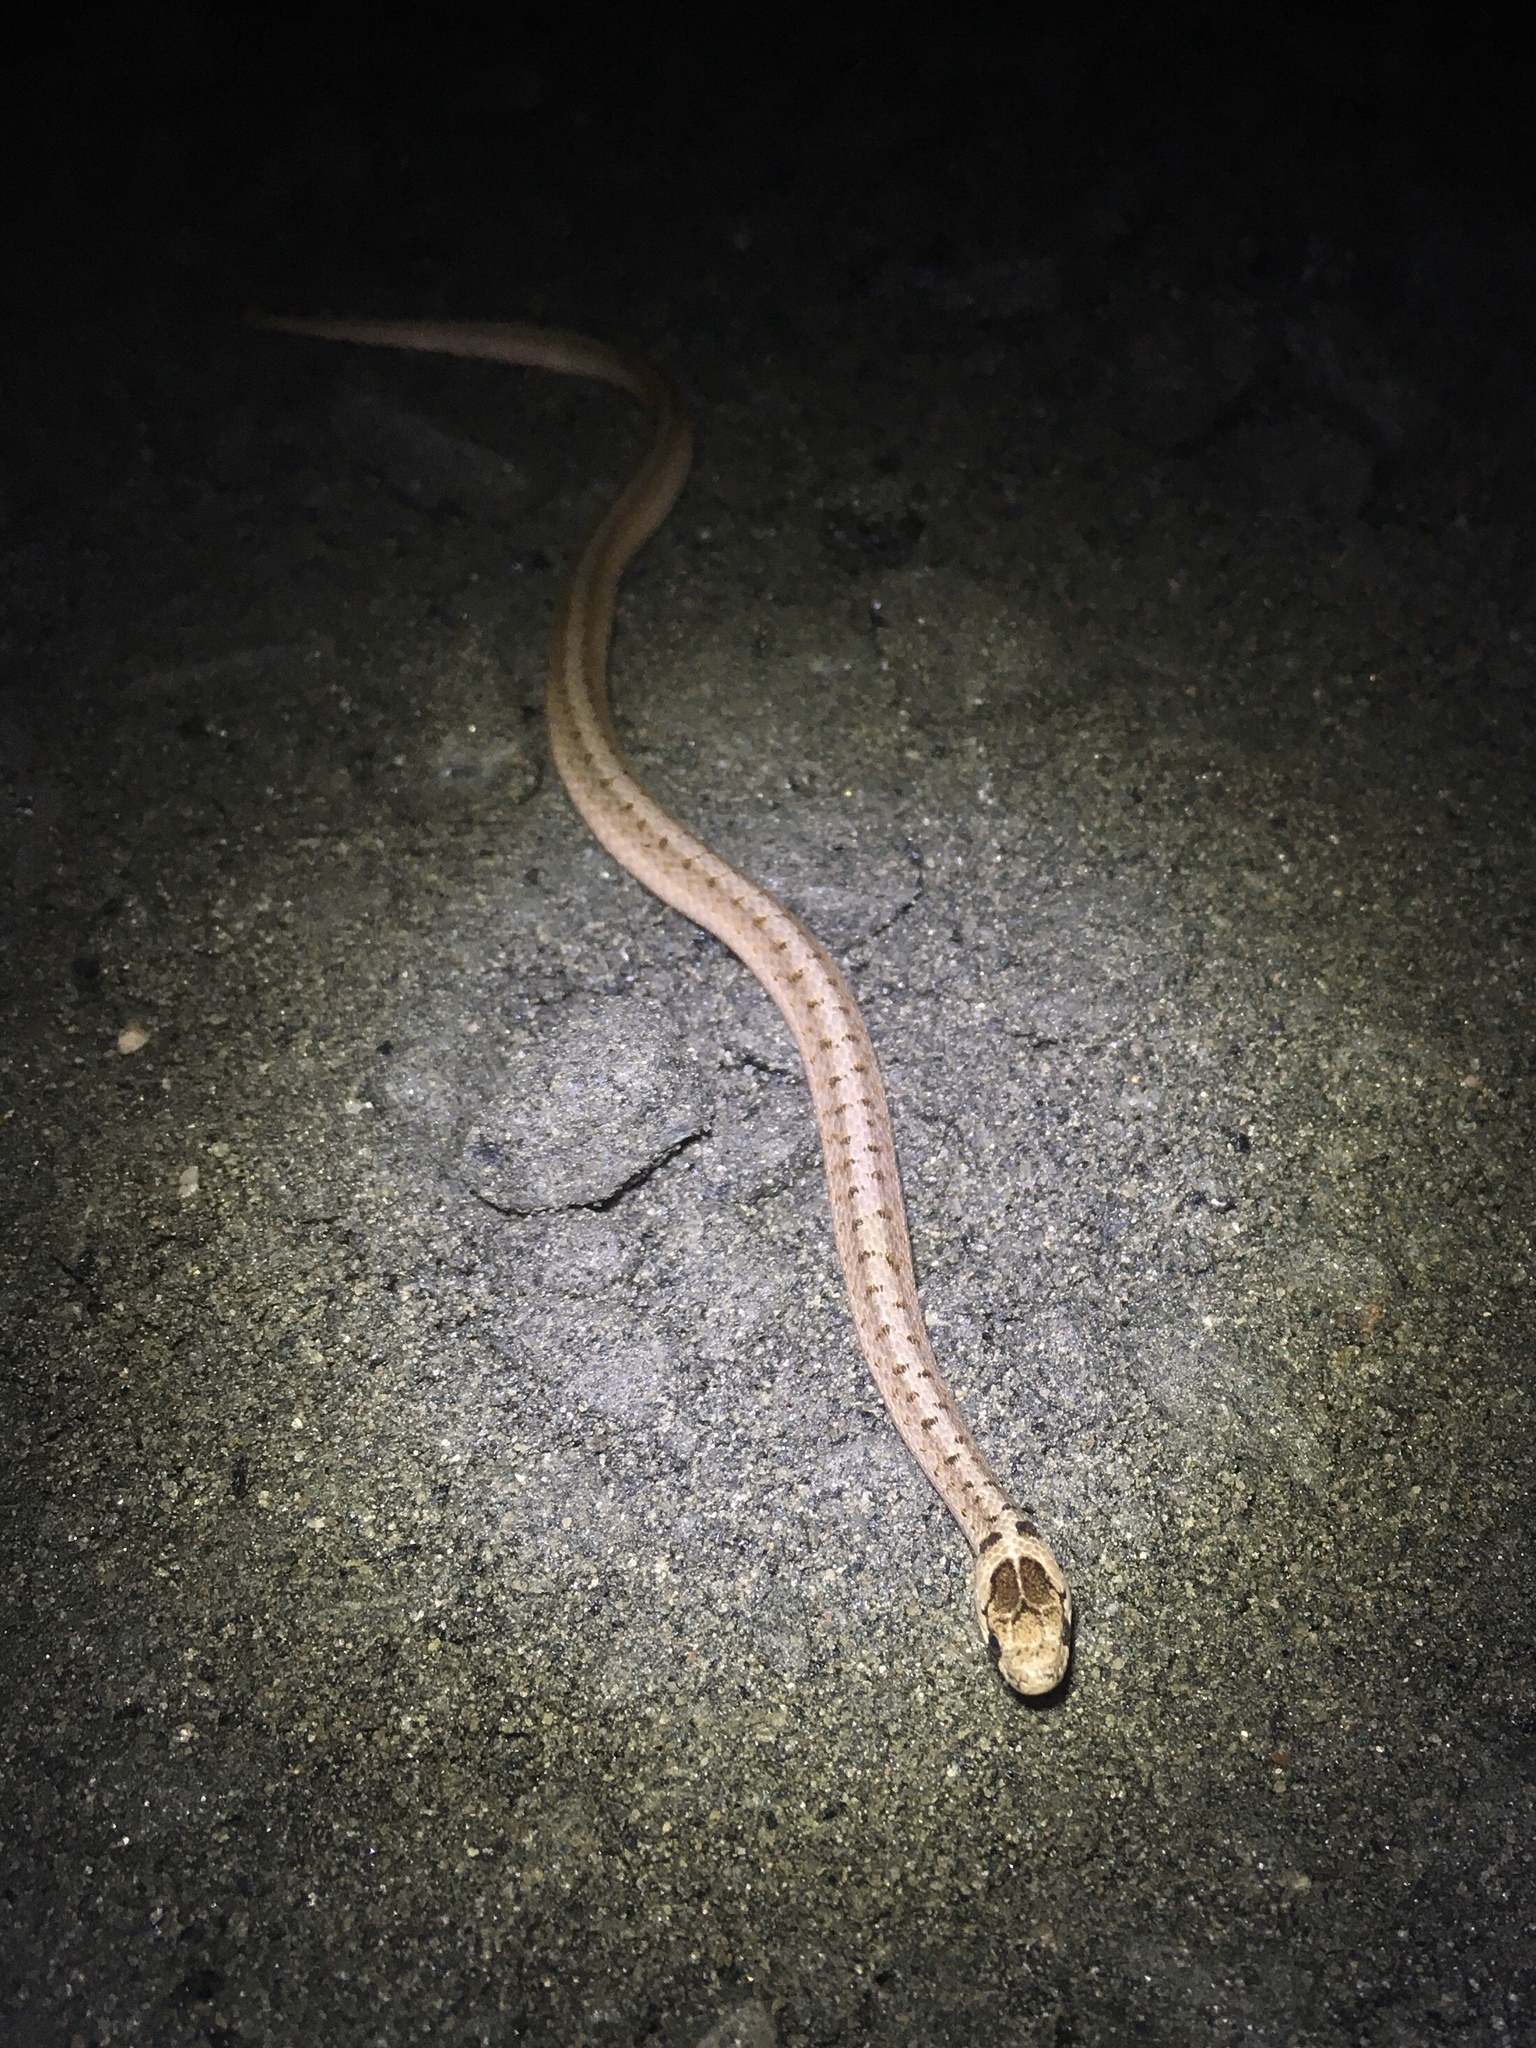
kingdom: Animalia
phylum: Chordata
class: Squamata
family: Colubridae
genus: Storeria
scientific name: Storeria dekayi
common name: (dekay’s) brown snake
